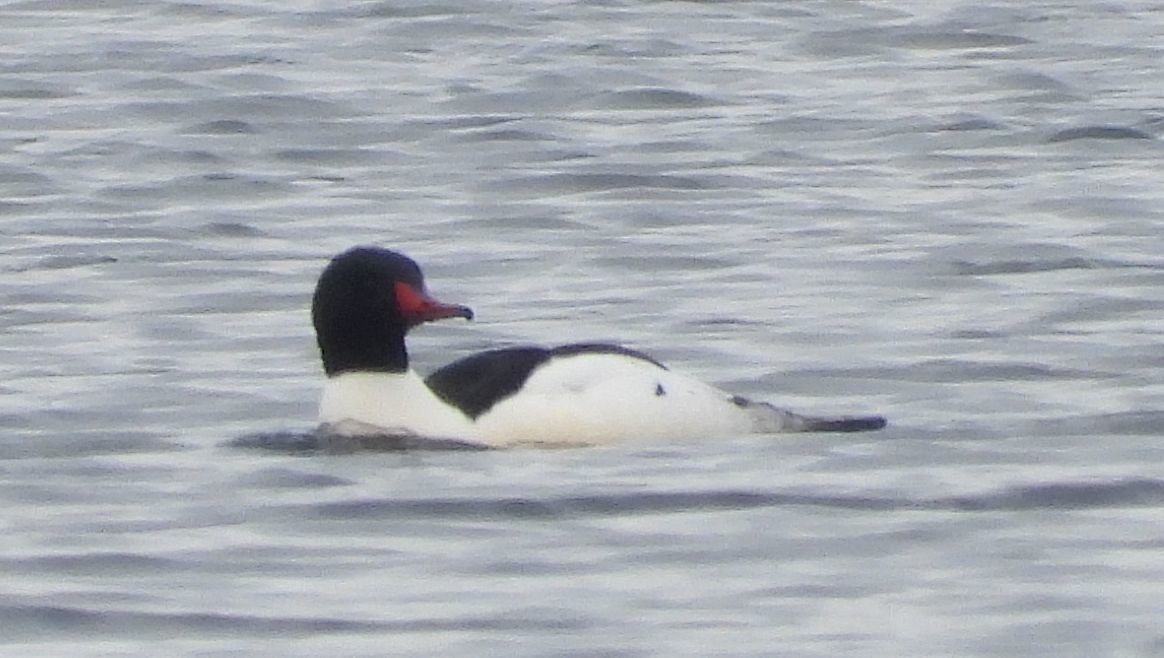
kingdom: Animalia
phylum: Chordata
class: Aves
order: Anseriformes
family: Anatidae
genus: Mergus
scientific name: Mergus merganser
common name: Common merganser
